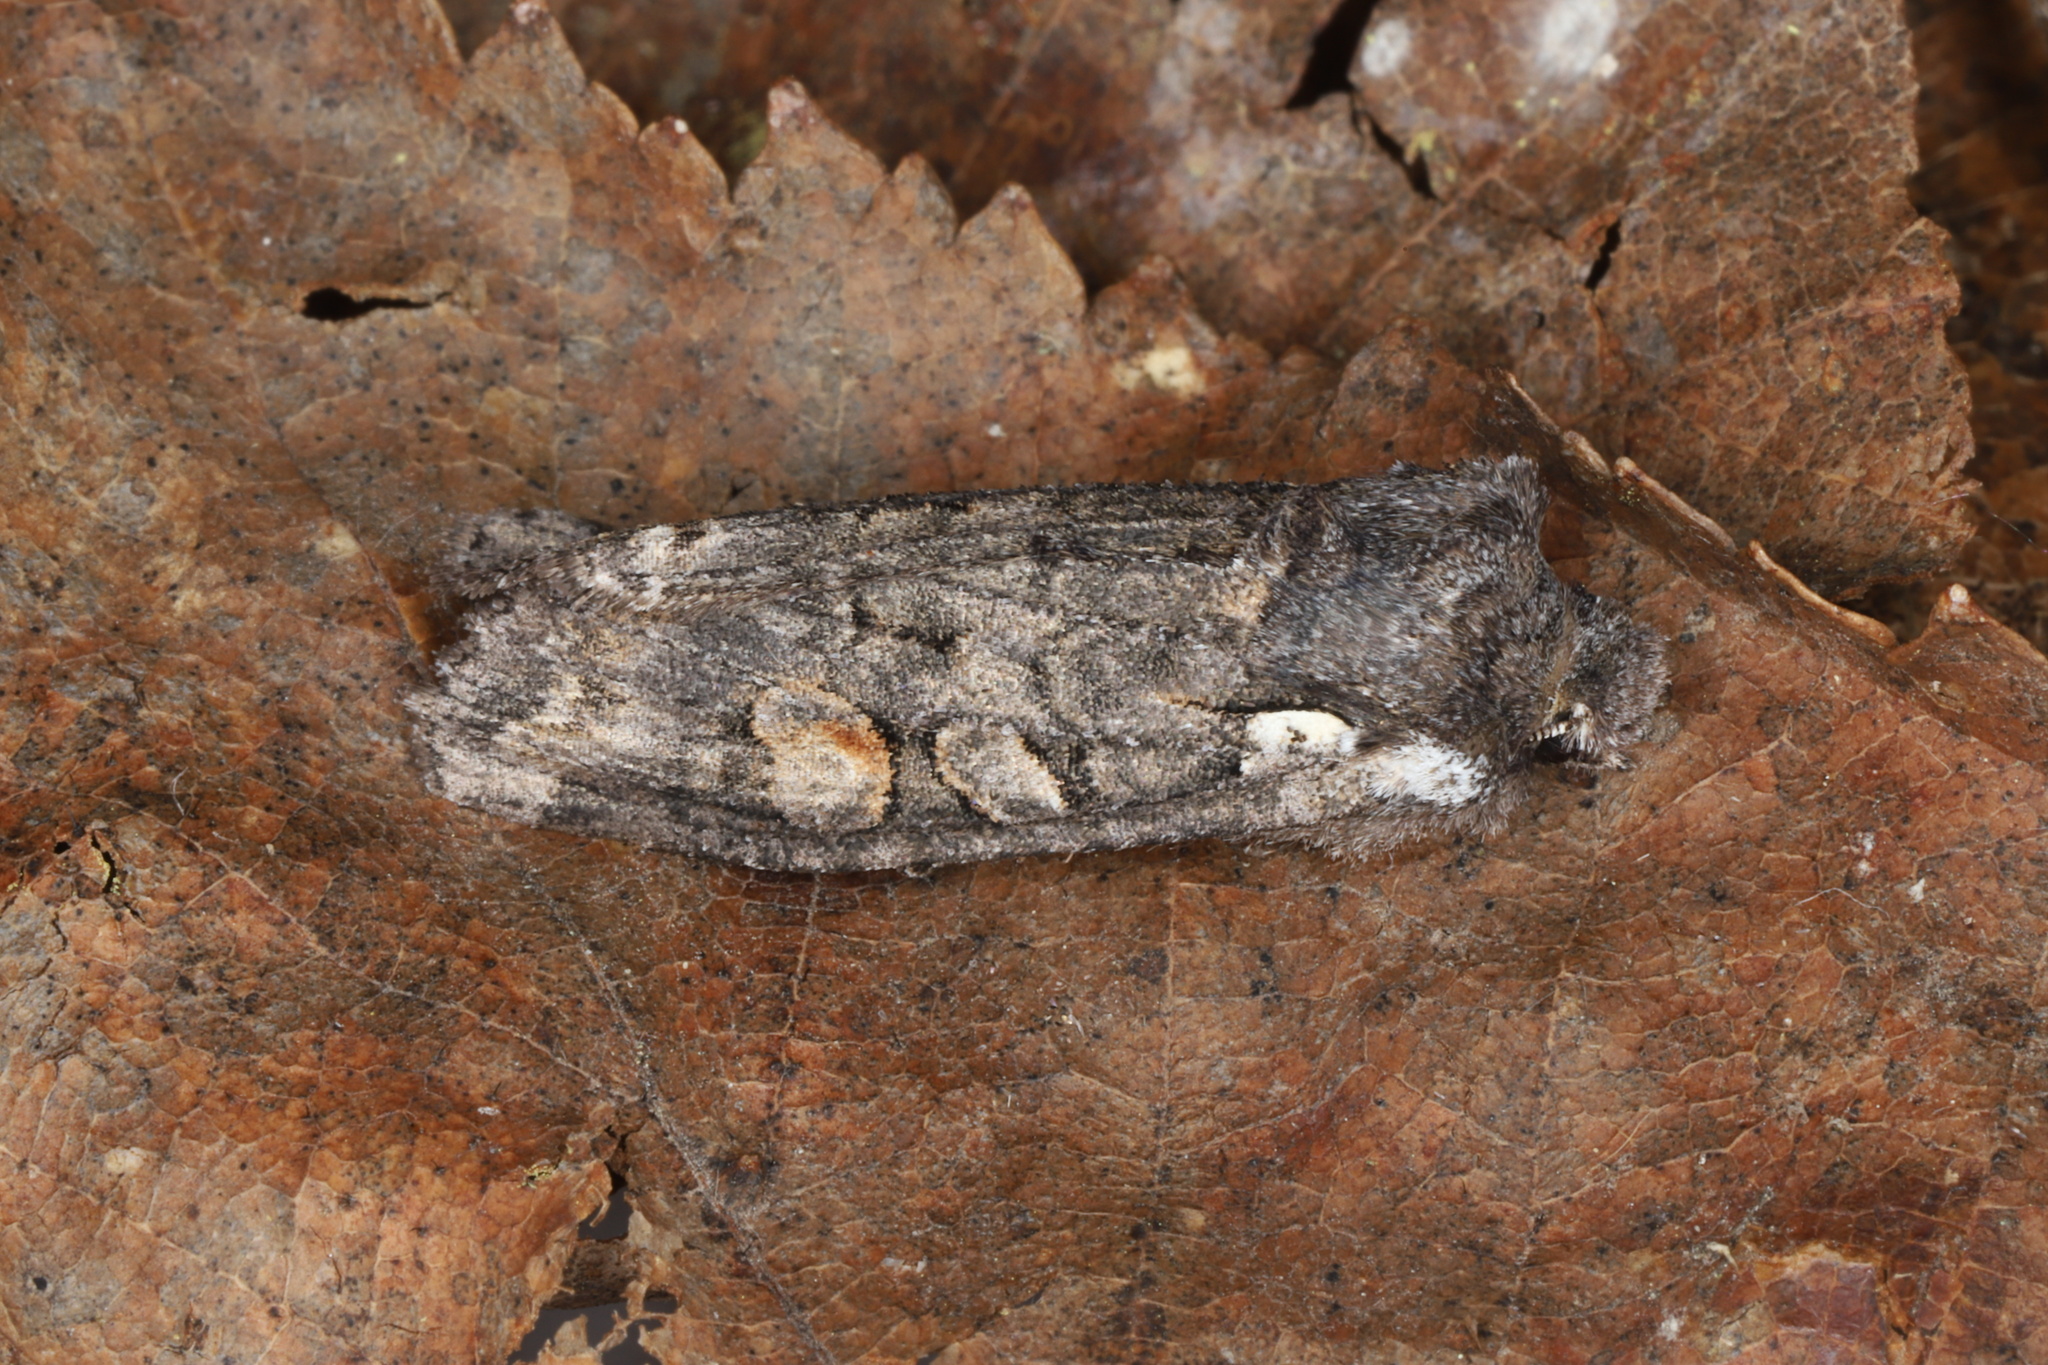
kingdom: Animalia
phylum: Arthropoda
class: Insecta
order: Lepidoptera
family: Noctuidae
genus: Lithophane
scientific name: Lithophane pexata
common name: Plush-naped pinion moth
